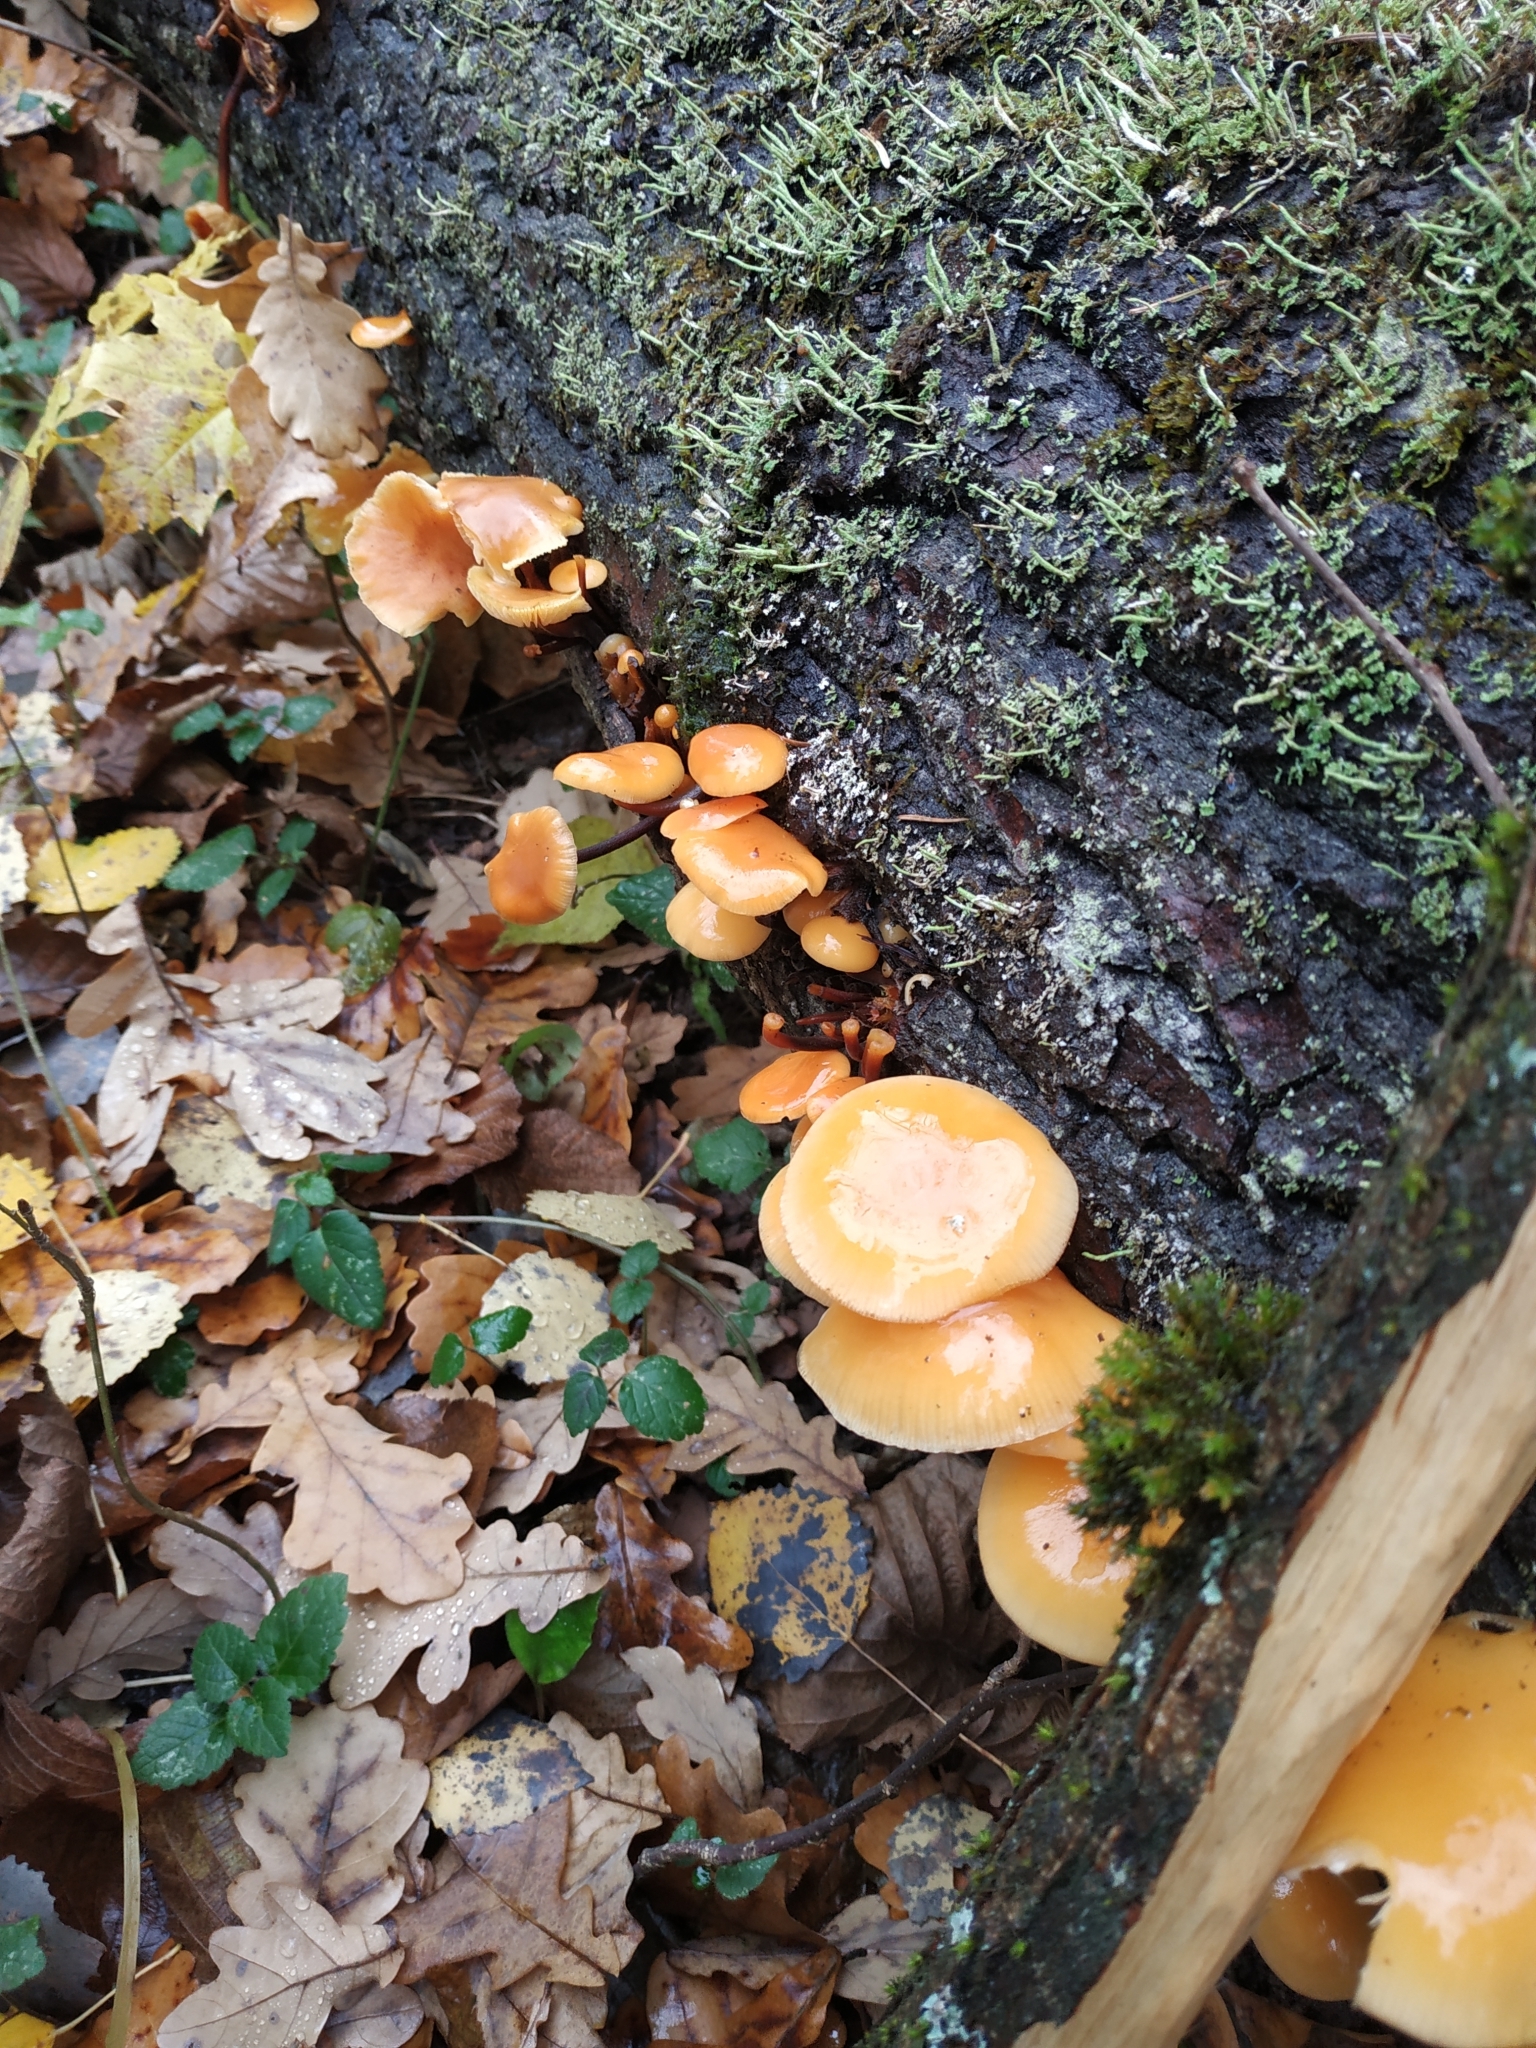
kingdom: Fungi
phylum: Basidiomycota
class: Agaricomycetes
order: Agaricales
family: Physalacriaceae
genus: Flammulina
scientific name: Flammulina
